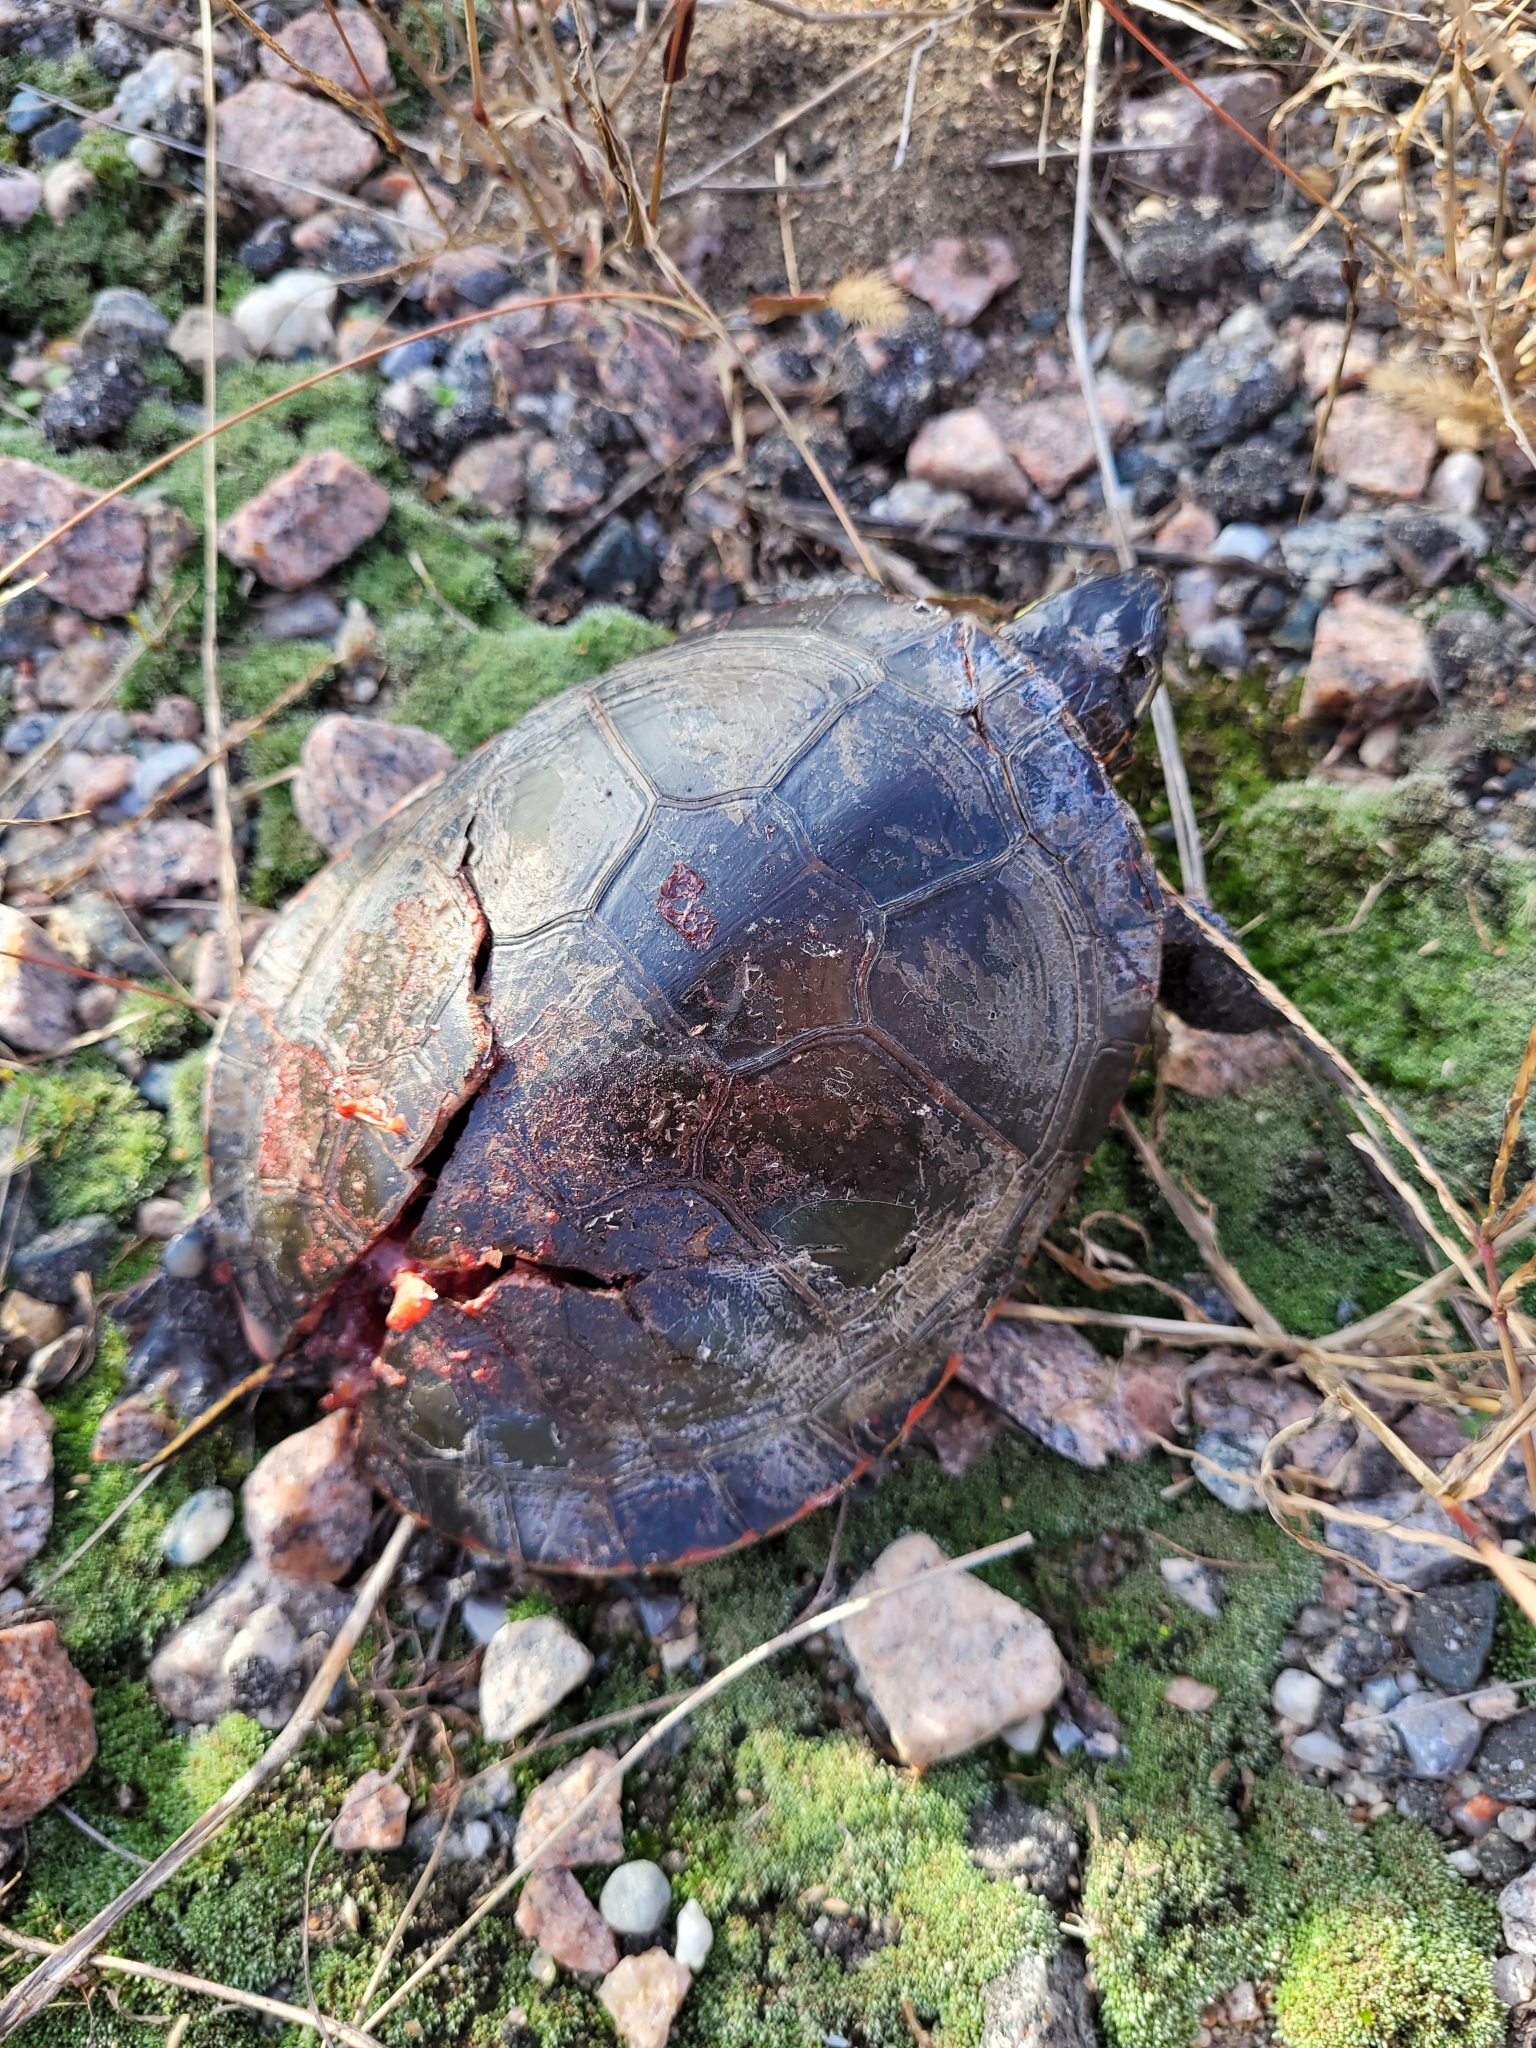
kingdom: Animalia
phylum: Chordata
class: Testudines
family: Emydidae
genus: Chrysemys
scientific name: Chrysemys picta
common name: Painted turtle
